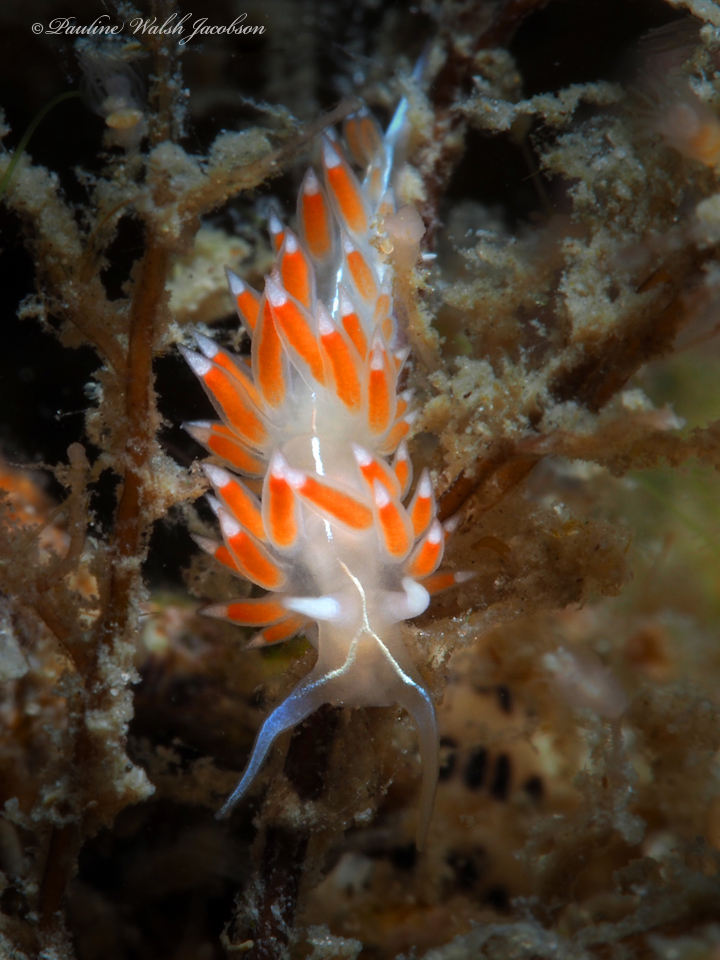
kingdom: Animalia
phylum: Mollusca
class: Gastropoda
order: Nudibranchia
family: Coryphellidae
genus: Coryphella
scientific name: Coryphella verta
